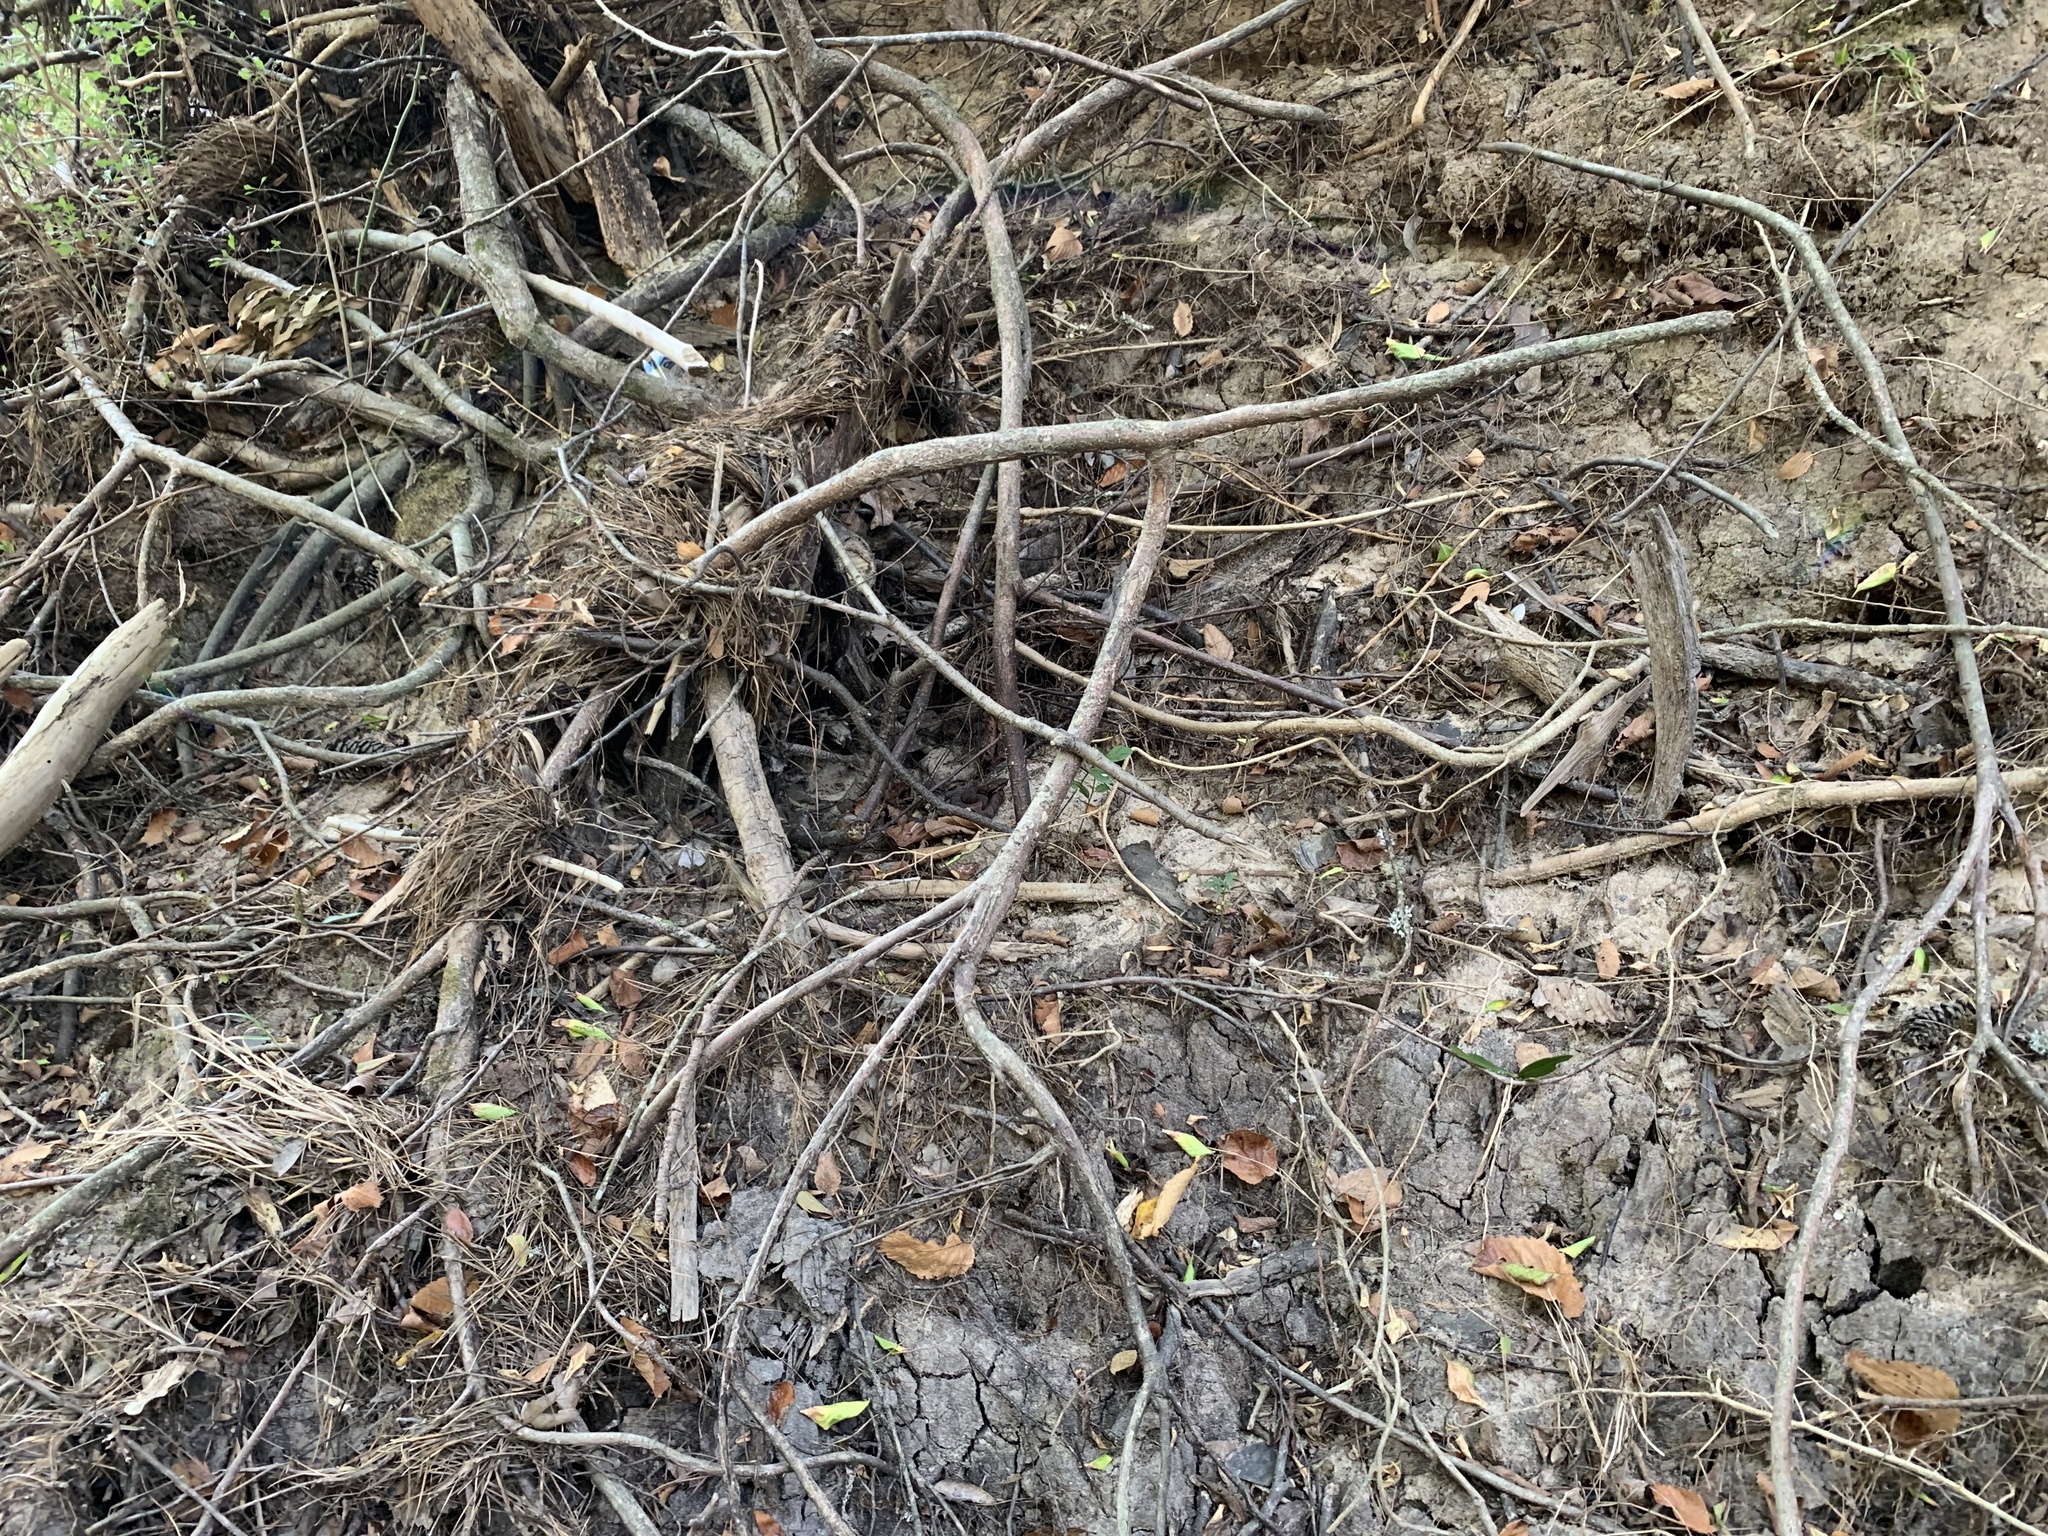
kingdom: Animalia
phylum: Chordata
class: Squamata
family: Viperidae
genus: Agkistrodon
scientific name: Agkistrodon piscivorus
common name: Cottonmouth
